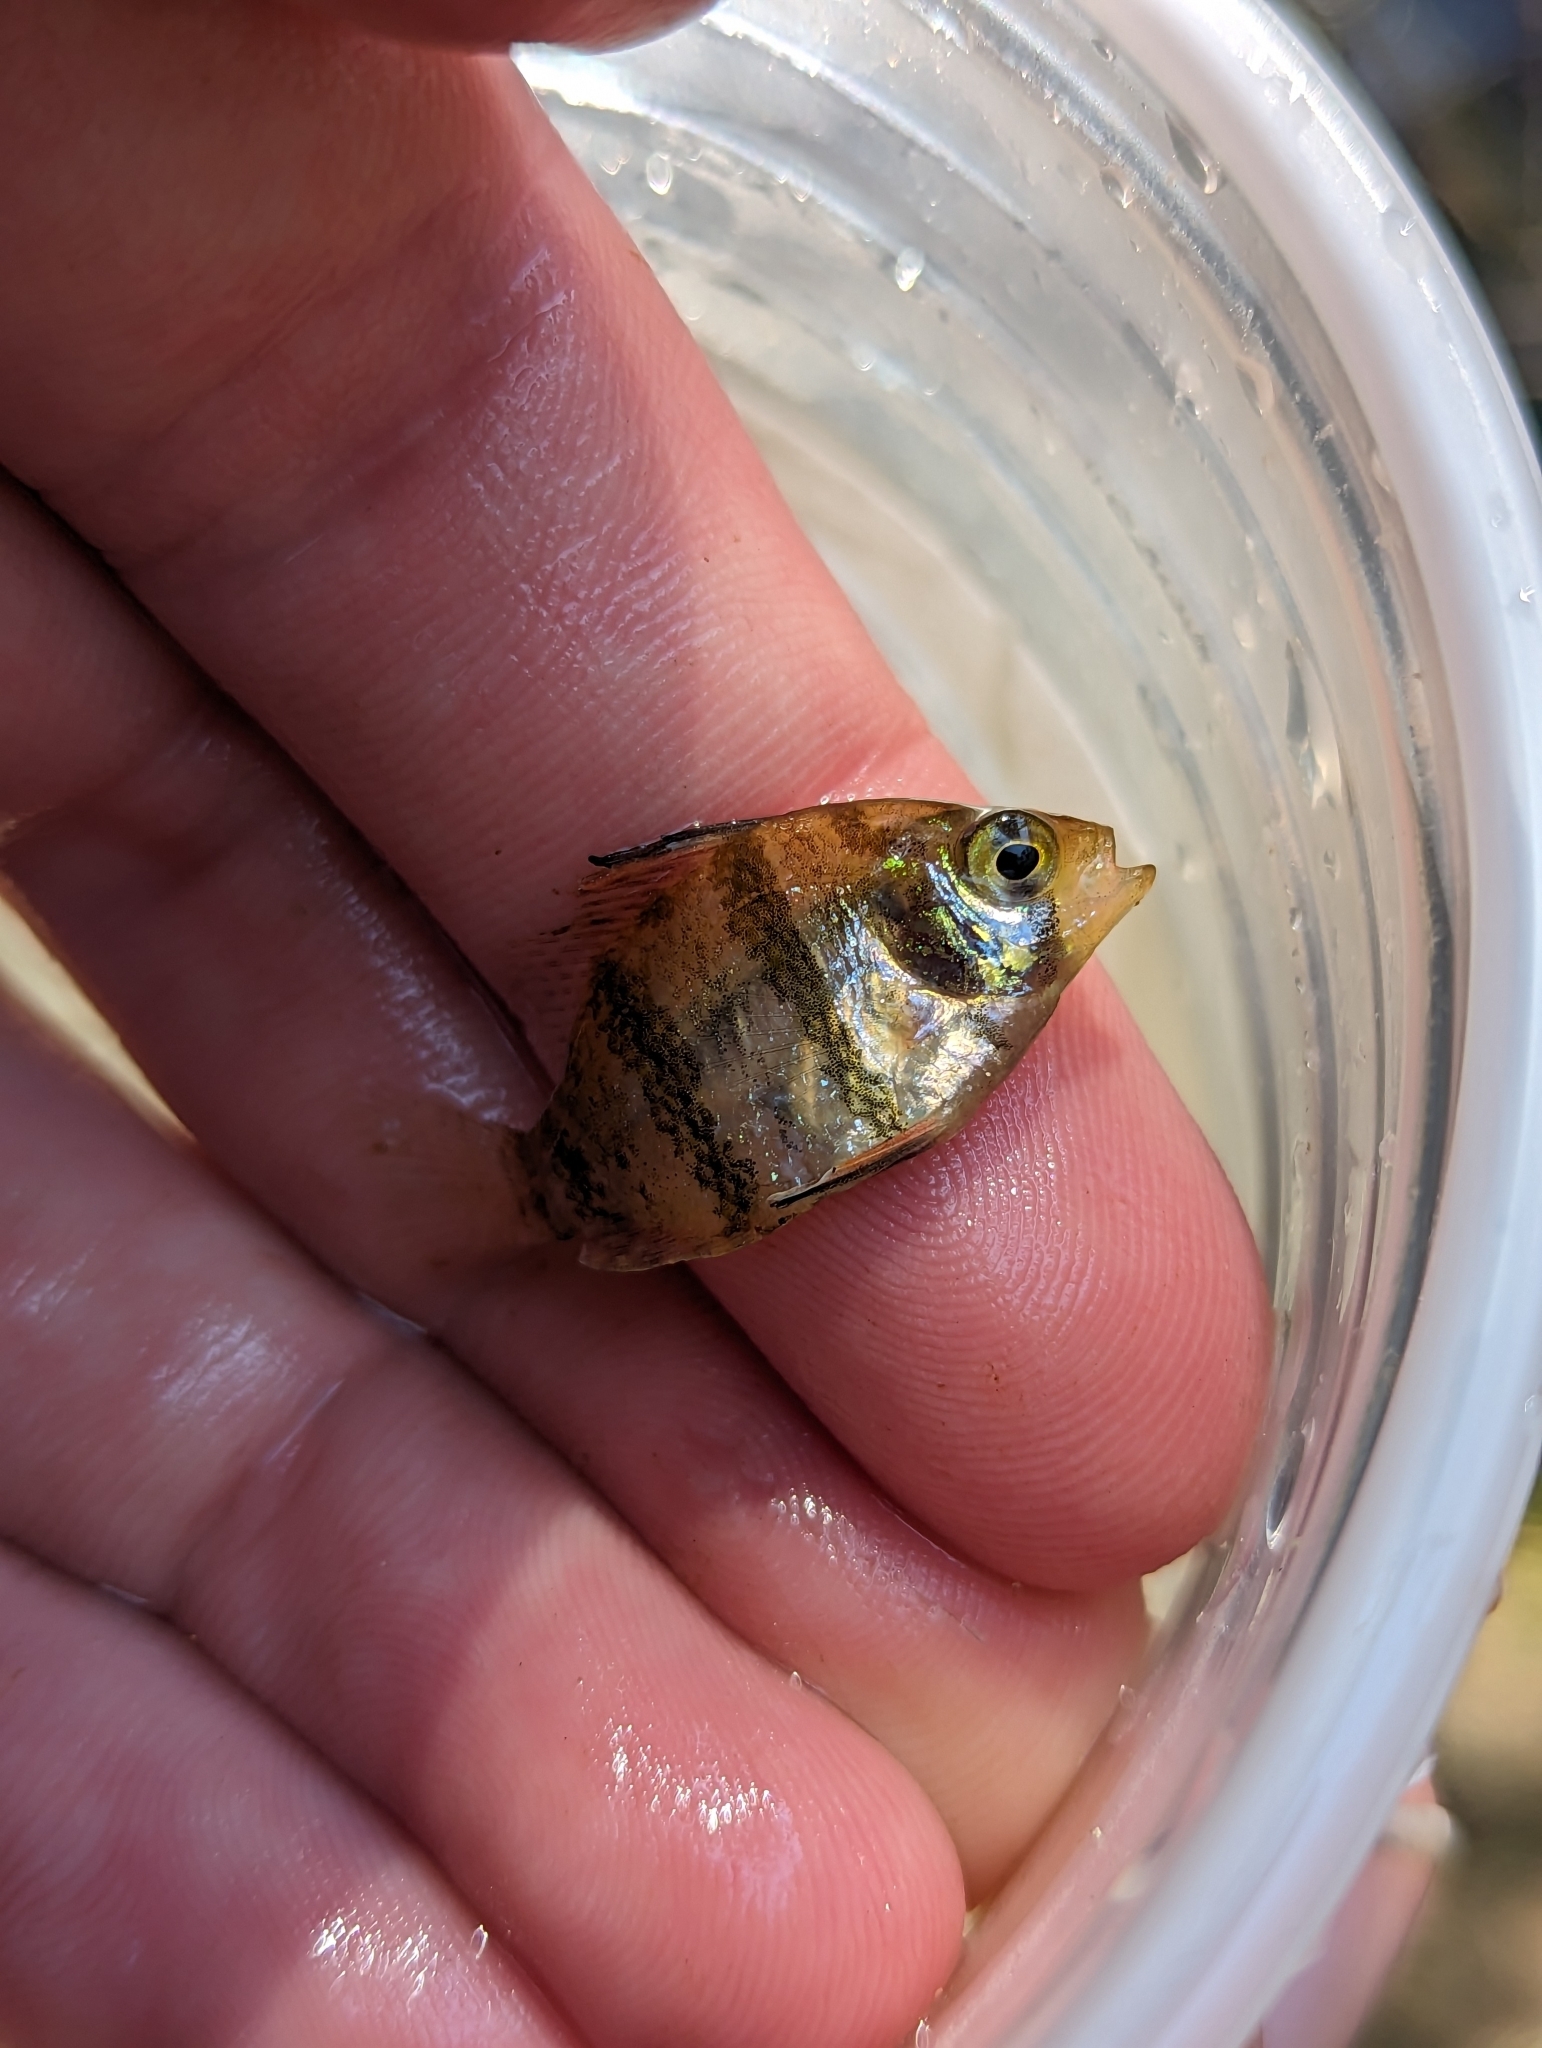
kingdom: Animalia
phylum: Chordata
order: Perciformes
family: Centrarchidae
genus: Enneacanthus
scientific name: Enneacanthus chaetodon
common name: Blackbanded sunfish
